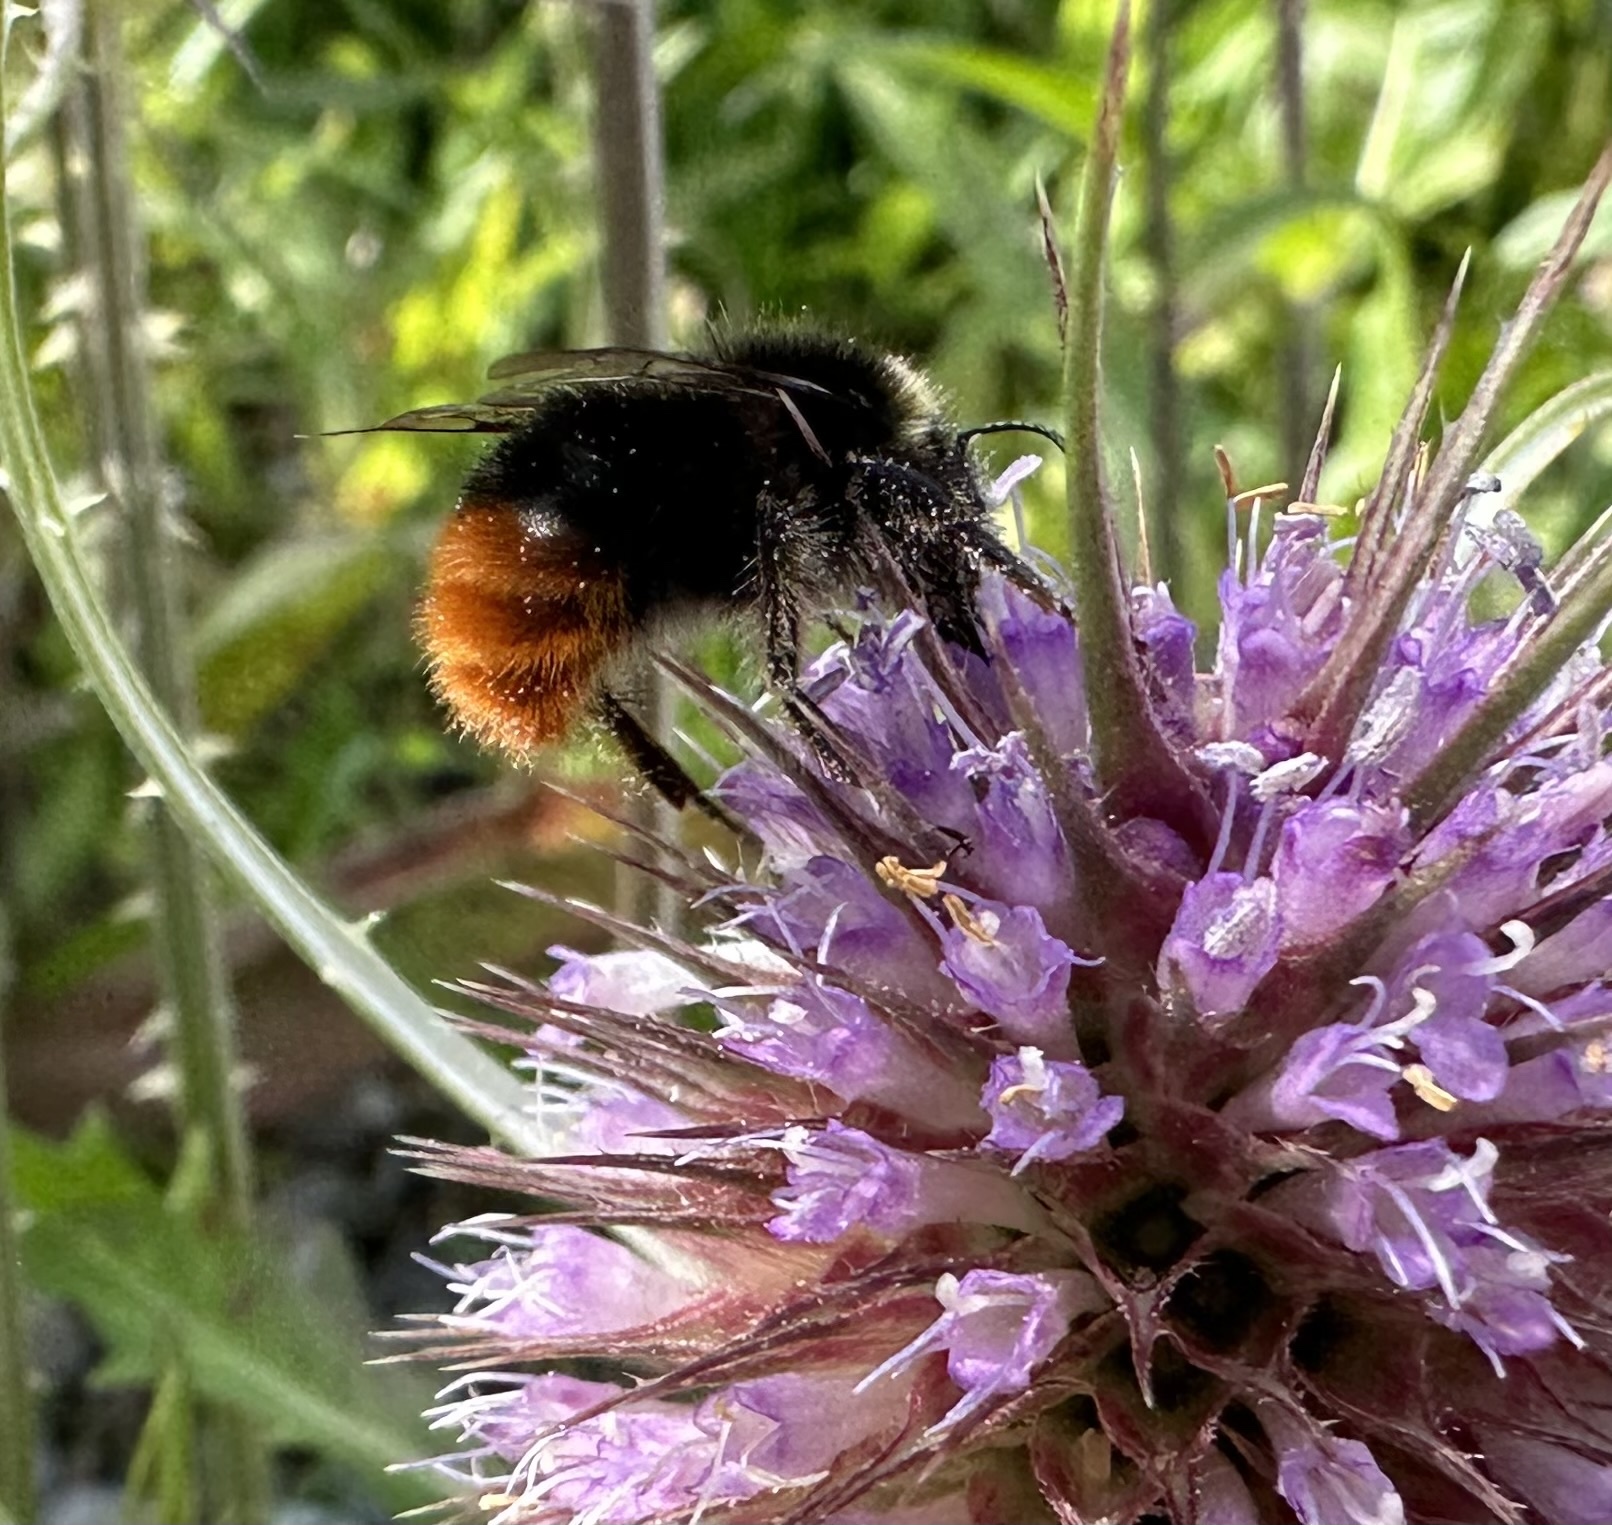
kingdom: Animalia
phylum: Arthropoda
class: Insecta
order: Hymenoptera
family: Apidae
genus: Bombus
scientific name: Bombus lapidarius
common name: Large red-tailed humble-bee
